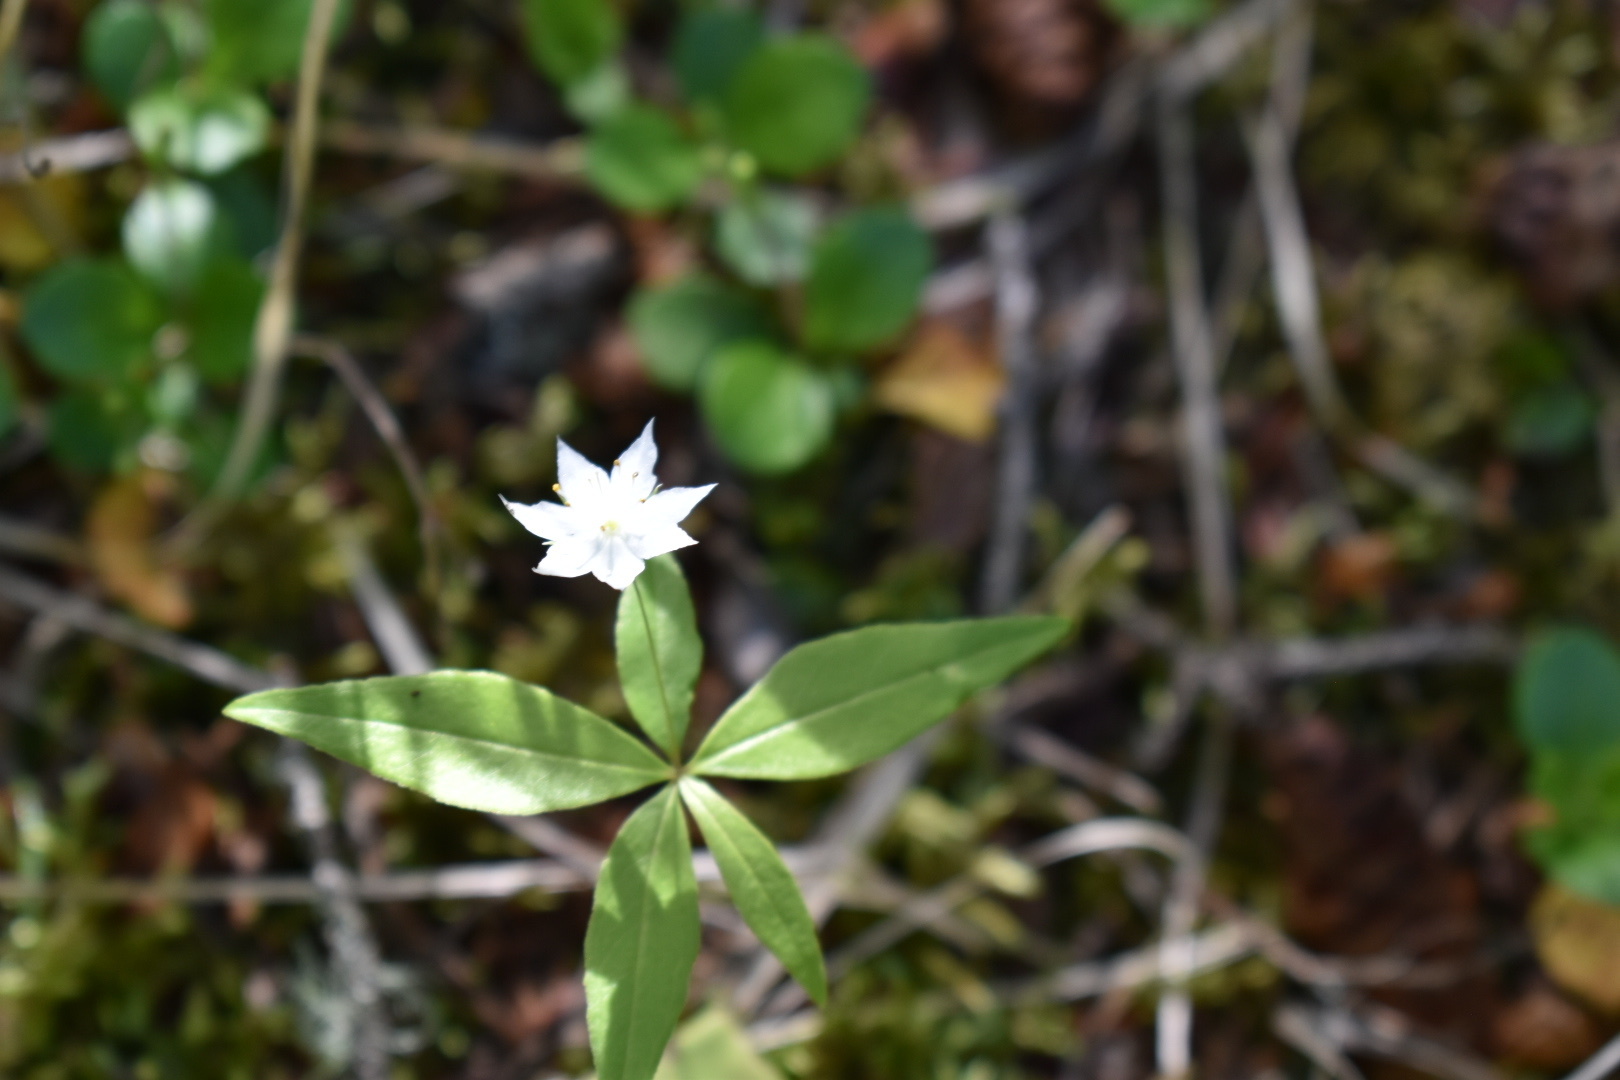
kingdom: Plantae
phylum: Tracheophyta
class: Magnoliopsida
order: Ericales
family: Primulaceae
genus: Lysimachia
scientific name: Lysimachia borealis
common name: American starflower
